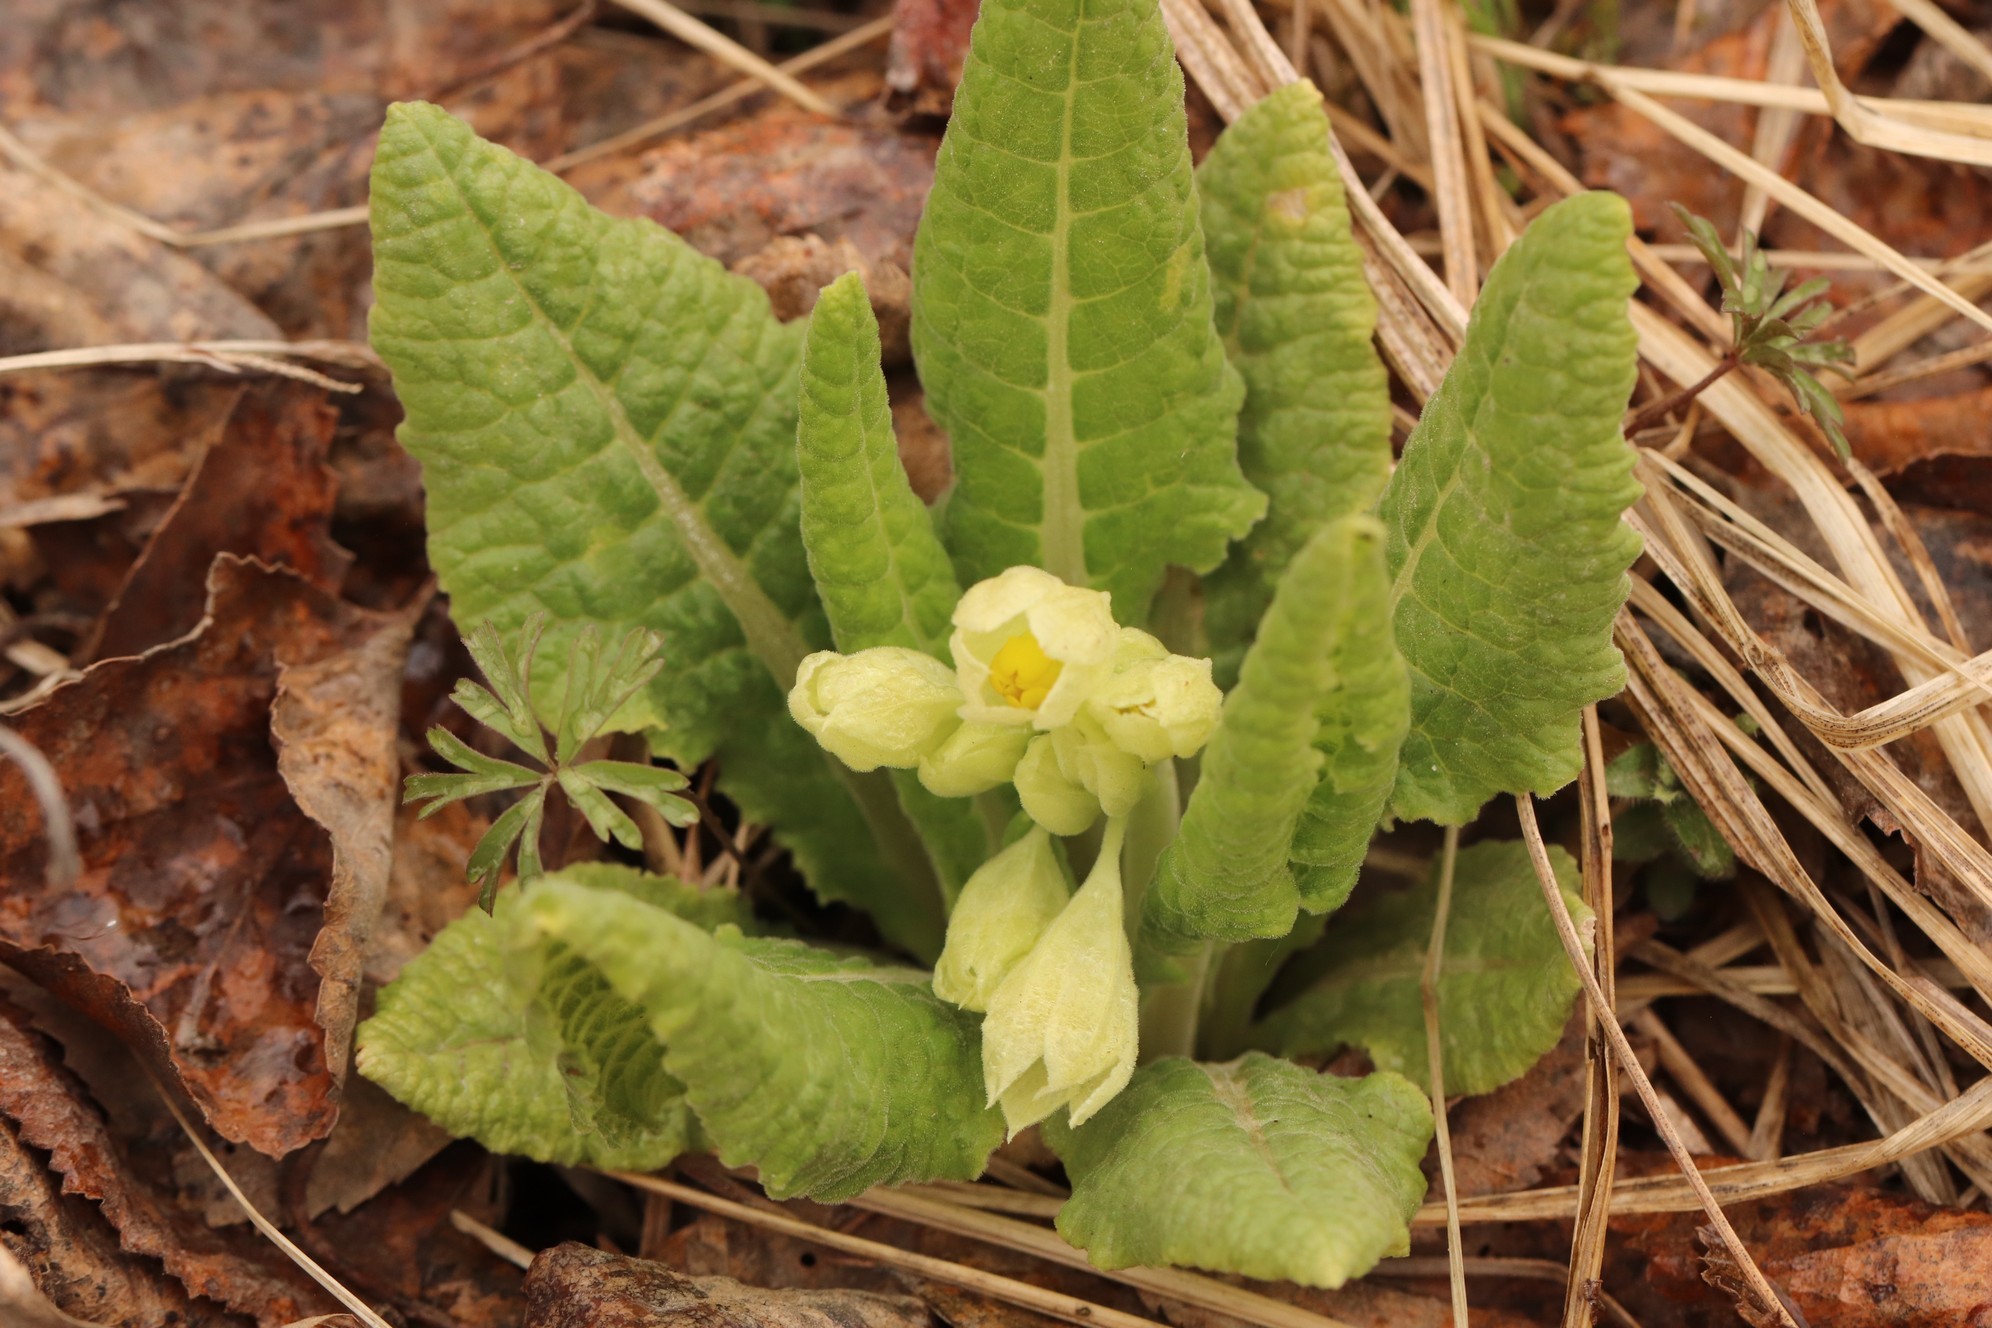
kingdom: Plantae
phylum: Tracheophyta
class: Magnoliopsida
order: Ericales
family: Primulaceae
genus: Primula
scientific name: Primula veris
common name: Cowslip
